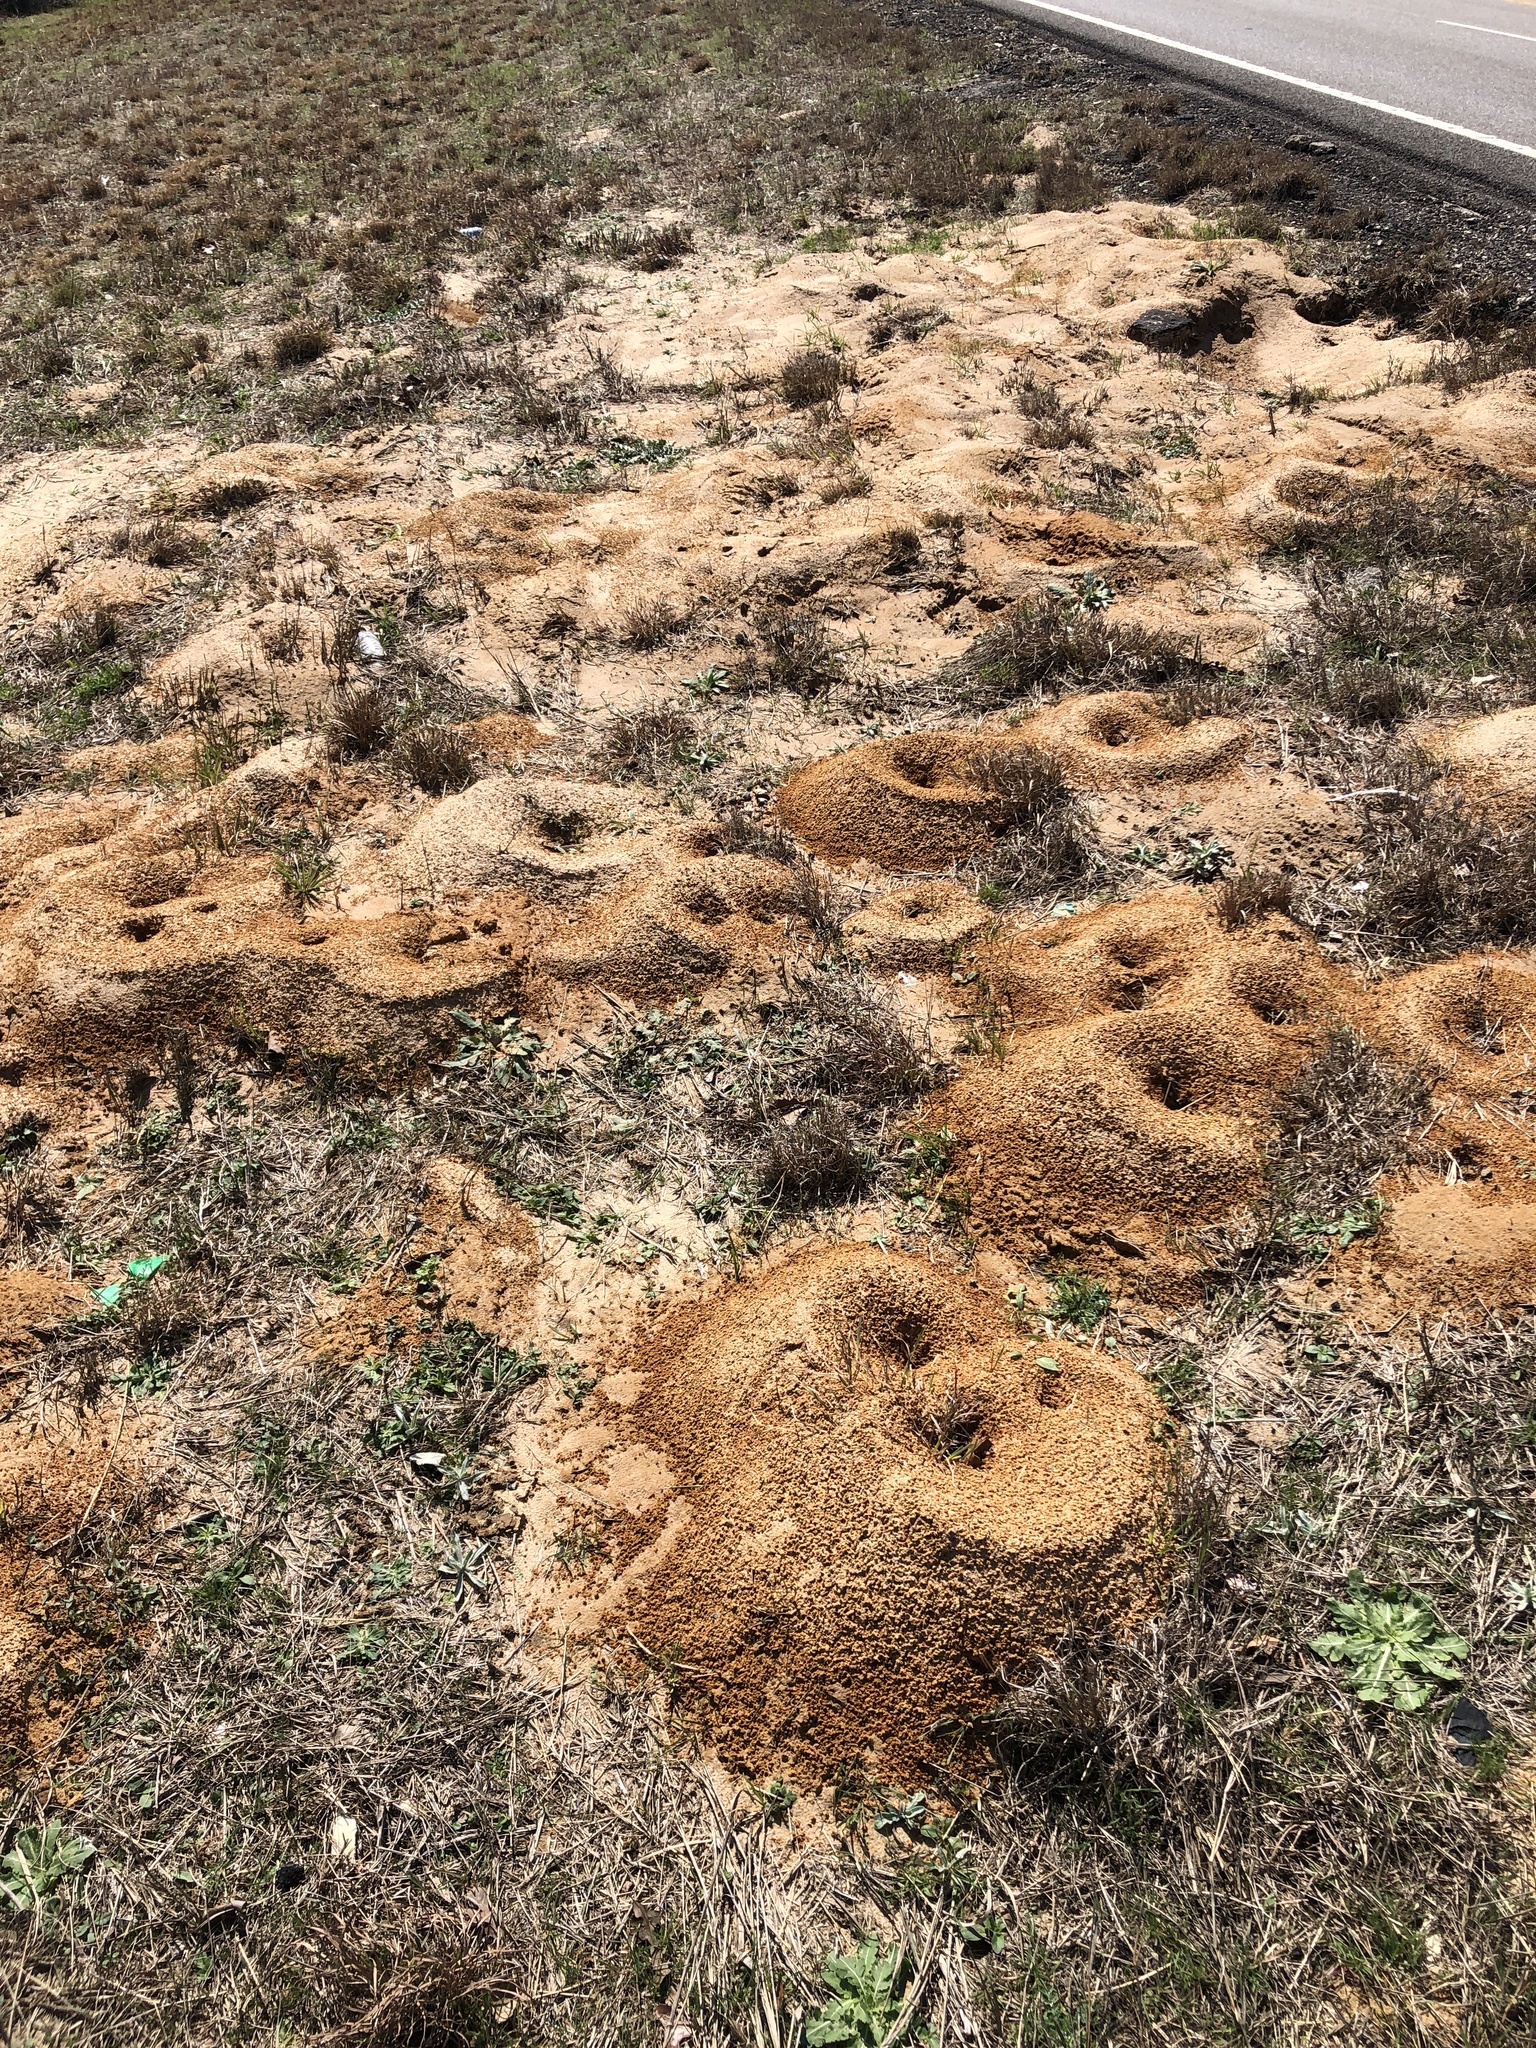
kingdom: Animalia
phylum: Arthropoda
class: Insecta
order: Hymenoptera
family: Formicidae
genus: Atta
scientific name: Atta texana
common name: Texas leafcutting ant
